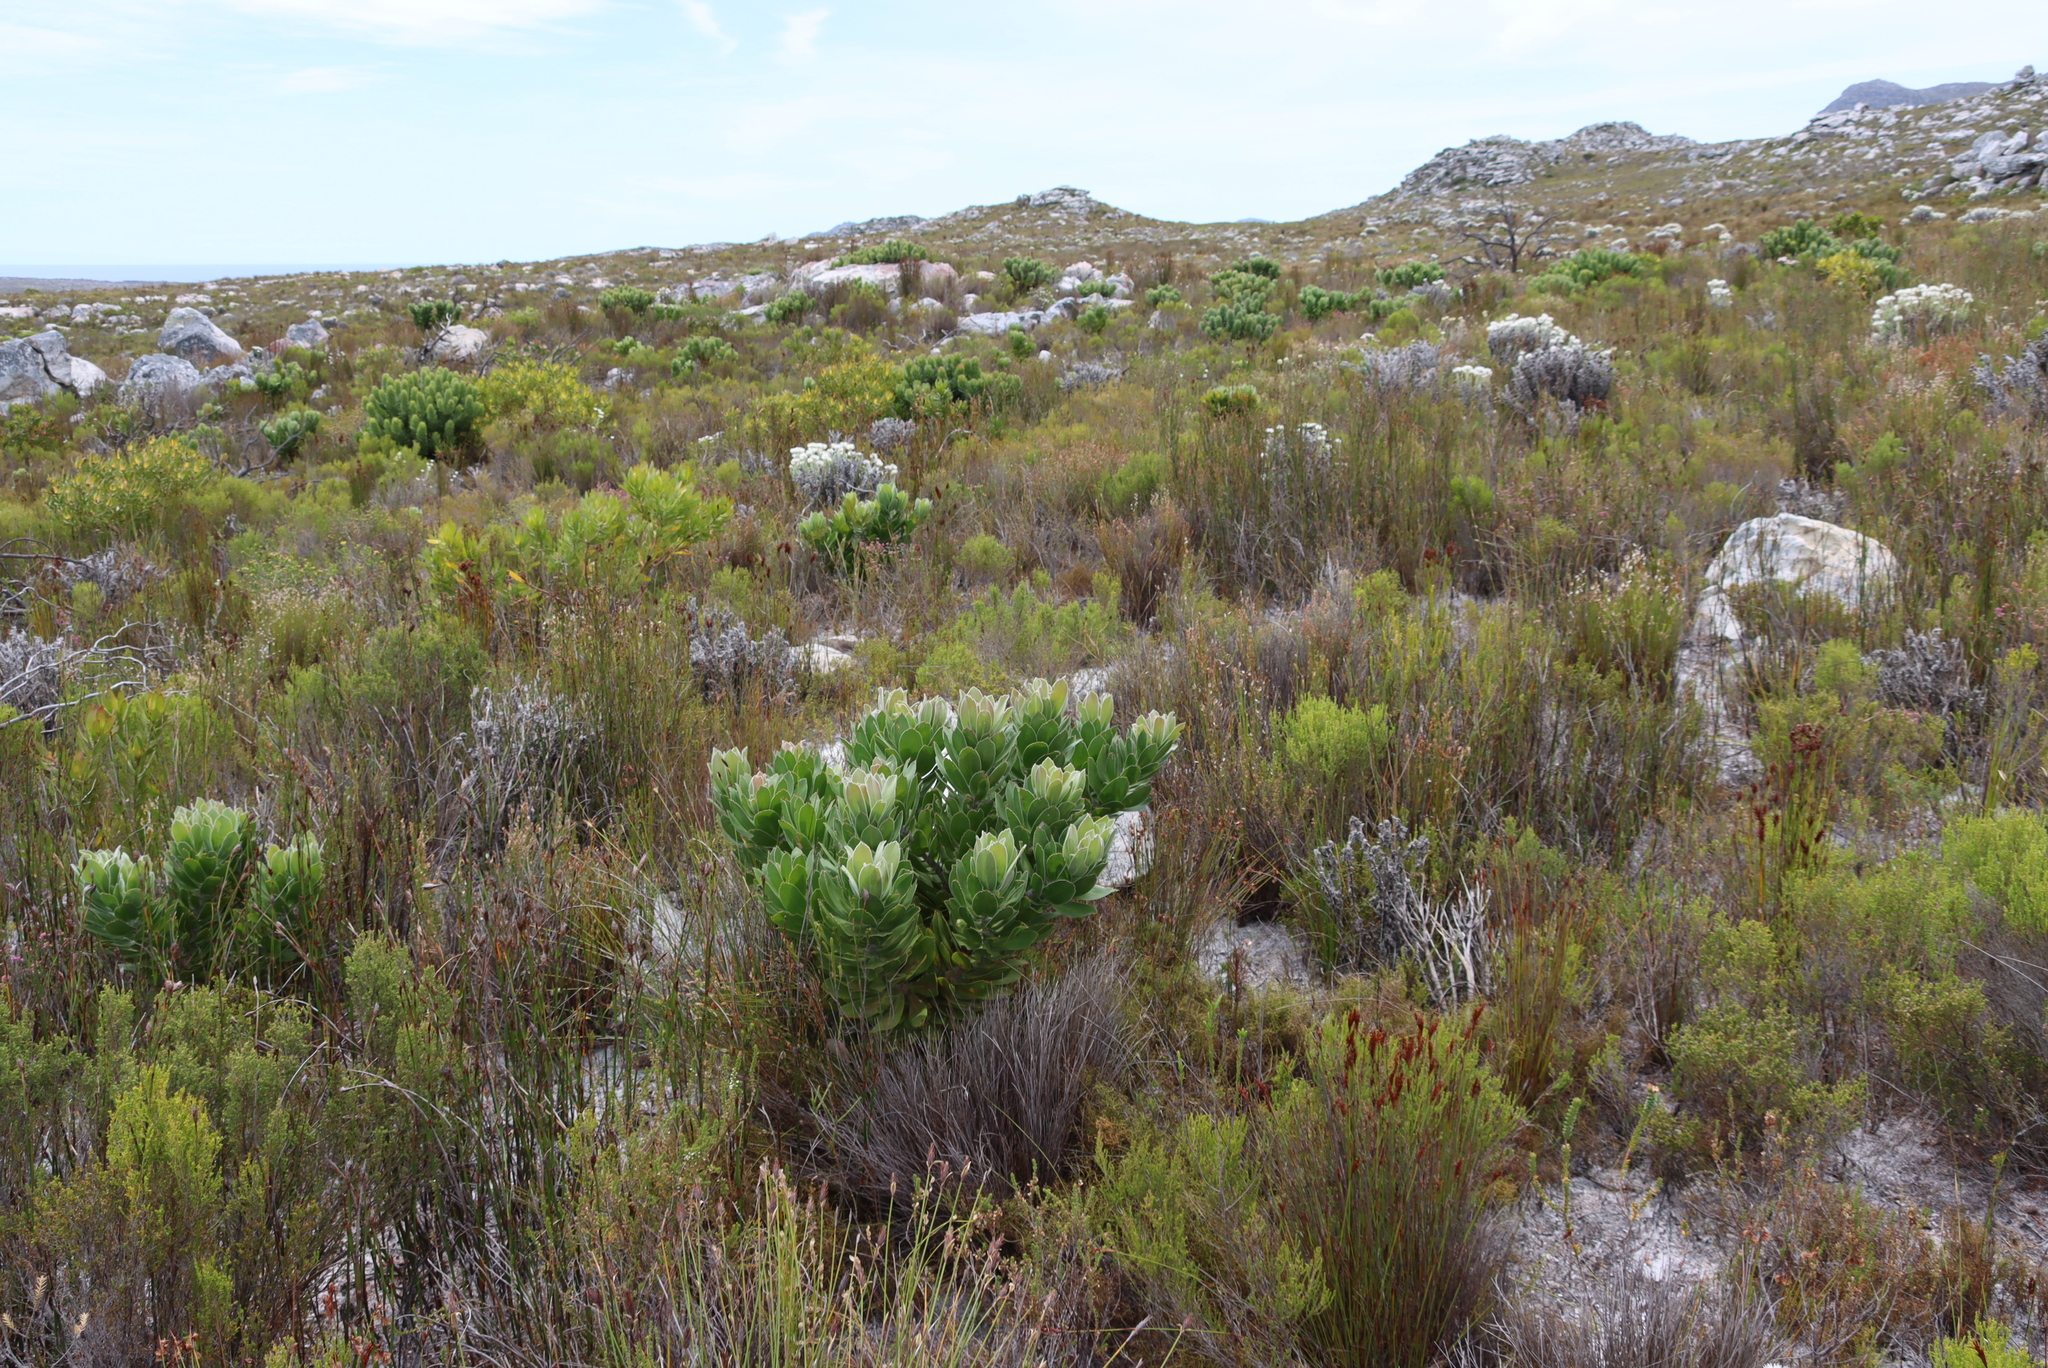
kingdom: Plantae
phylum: Tracheophyta
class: Magnoliopsida
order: Proteales
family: Proteaceae
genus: Leucospermum
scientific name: Leucospermum conocarpodendron
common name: Tree pincushion
